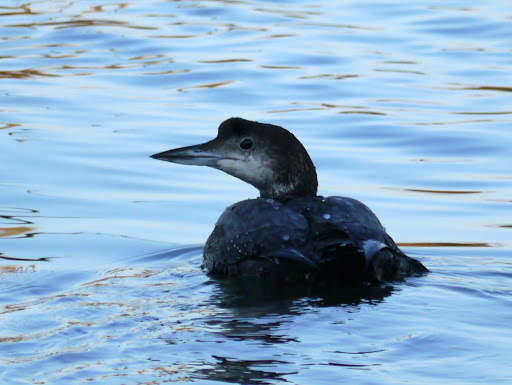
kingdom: Animalia
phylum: Chordata
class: Aves
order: Gaviiformes
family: Gaviidae
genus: Gavia
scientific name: Gavia immer
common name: Common loon
